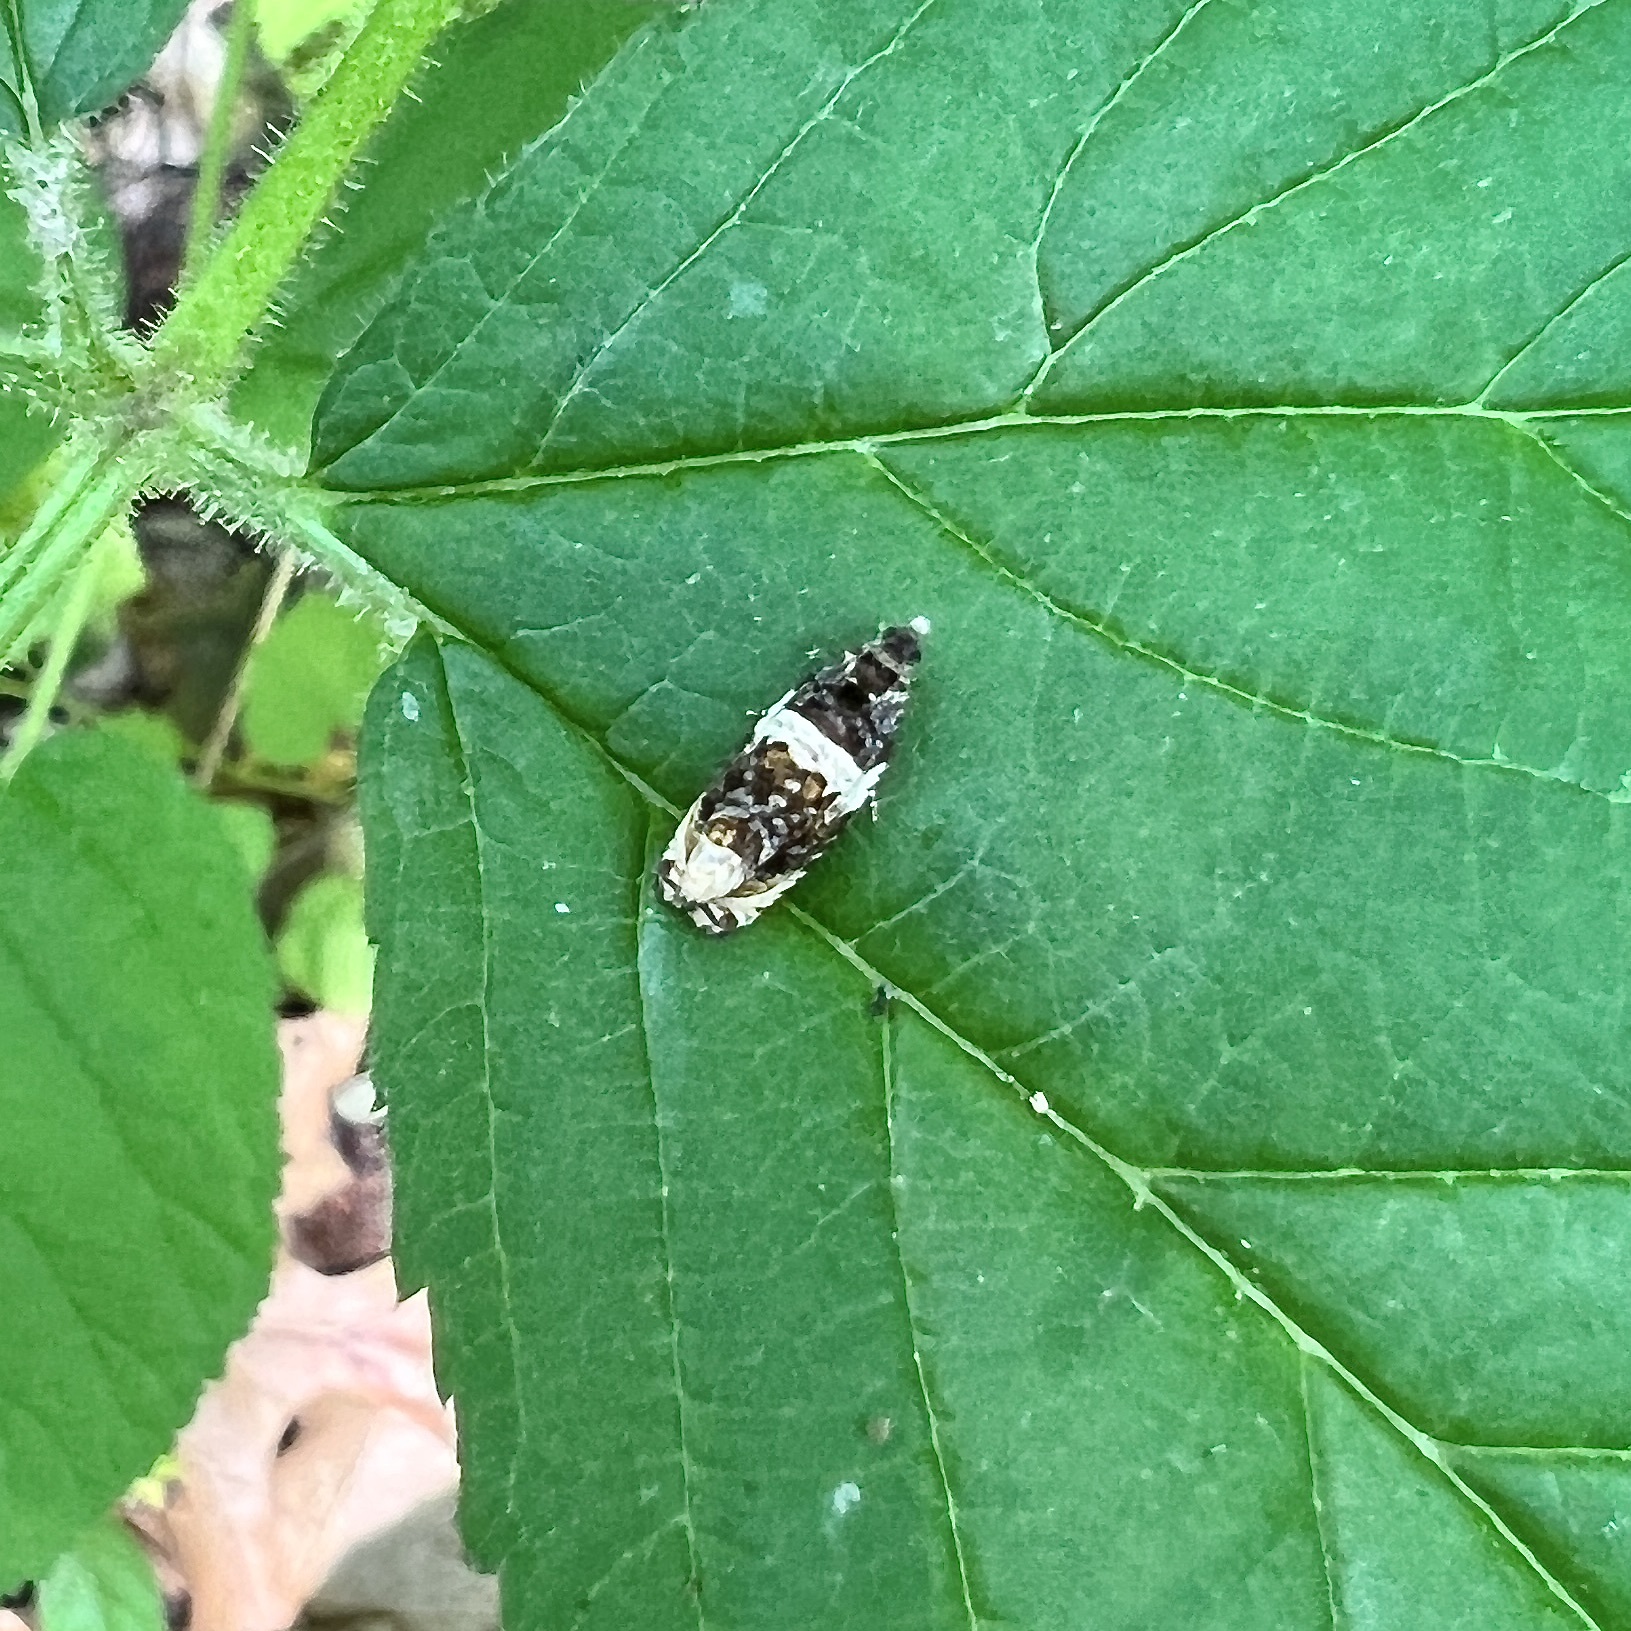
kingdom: Animalia
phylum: Arthropoda
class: Insecta
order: Lepidoptera
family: Tortricidae
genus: Olethreutes
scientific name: Olethreutes fasciatana
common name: Banded olethreutes moth
